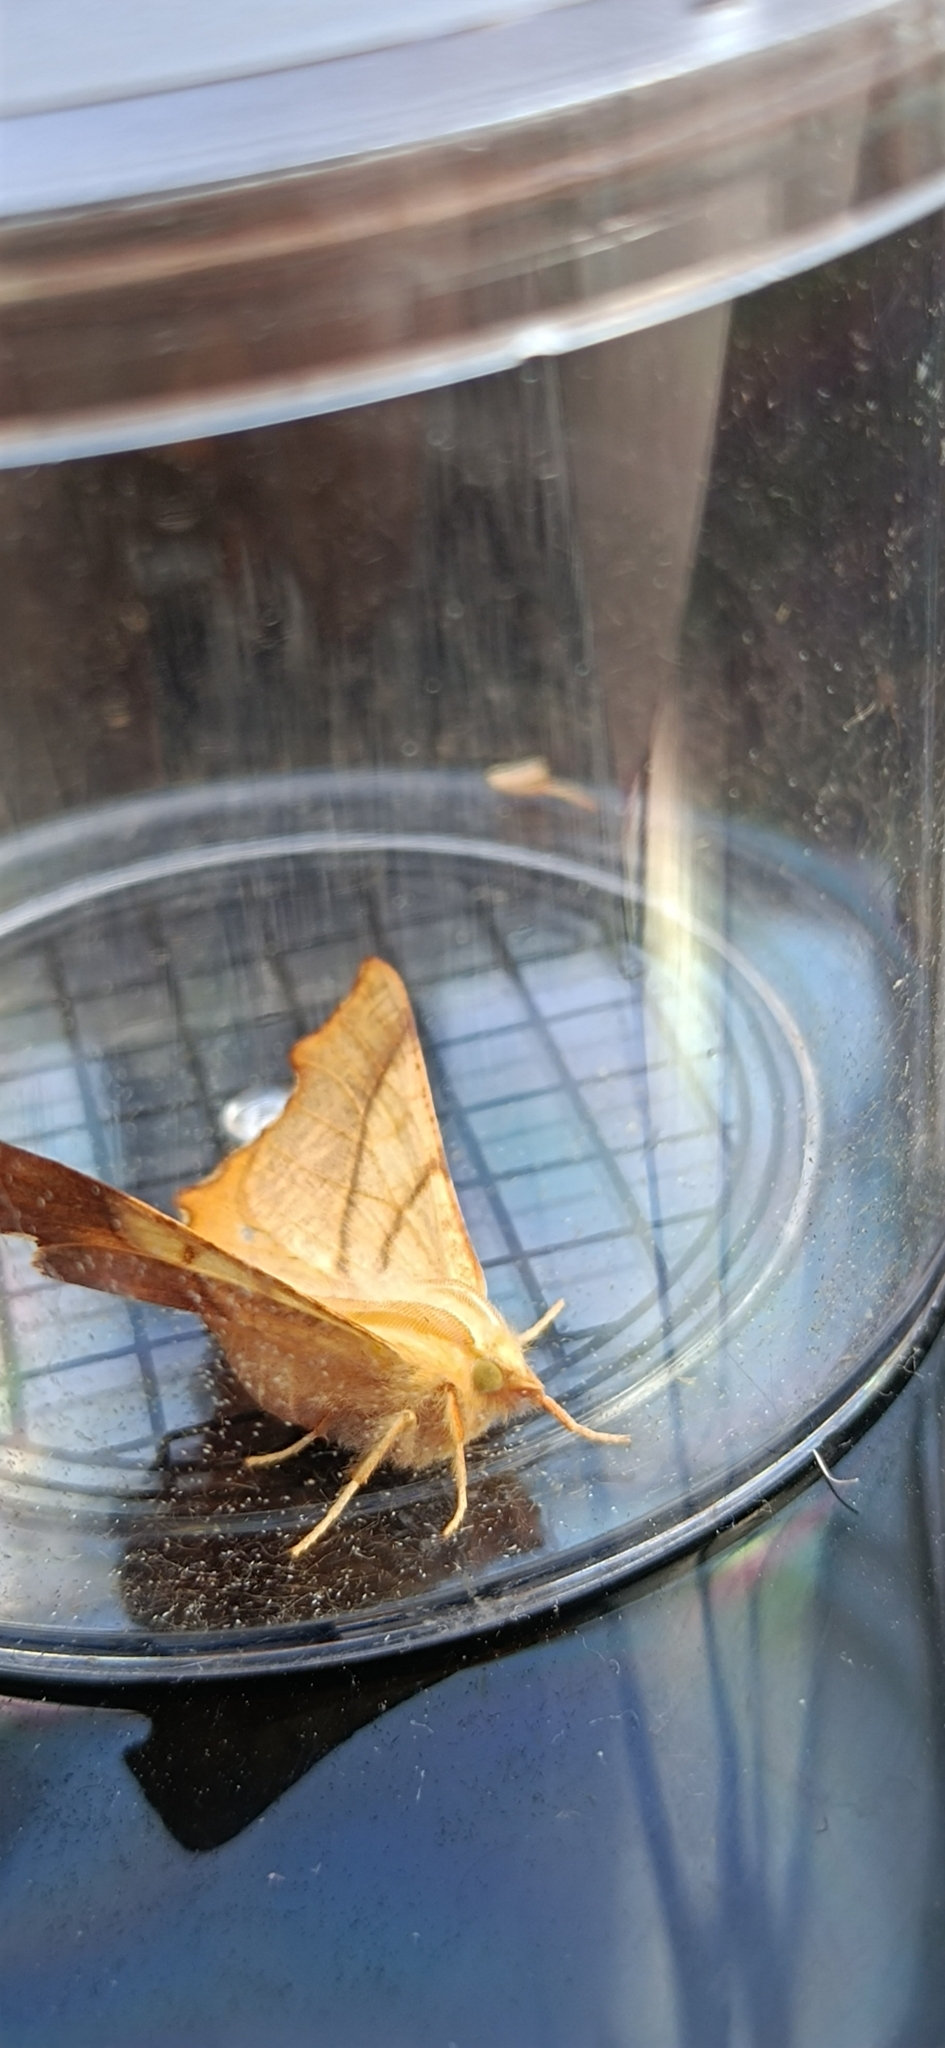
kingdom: Animalia
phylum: Arthropoda
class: Insecta
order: Lepidoptera
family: Geometridae
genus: Ennomos
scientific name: Ennomos fuscantaria
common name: Dusky thorn
